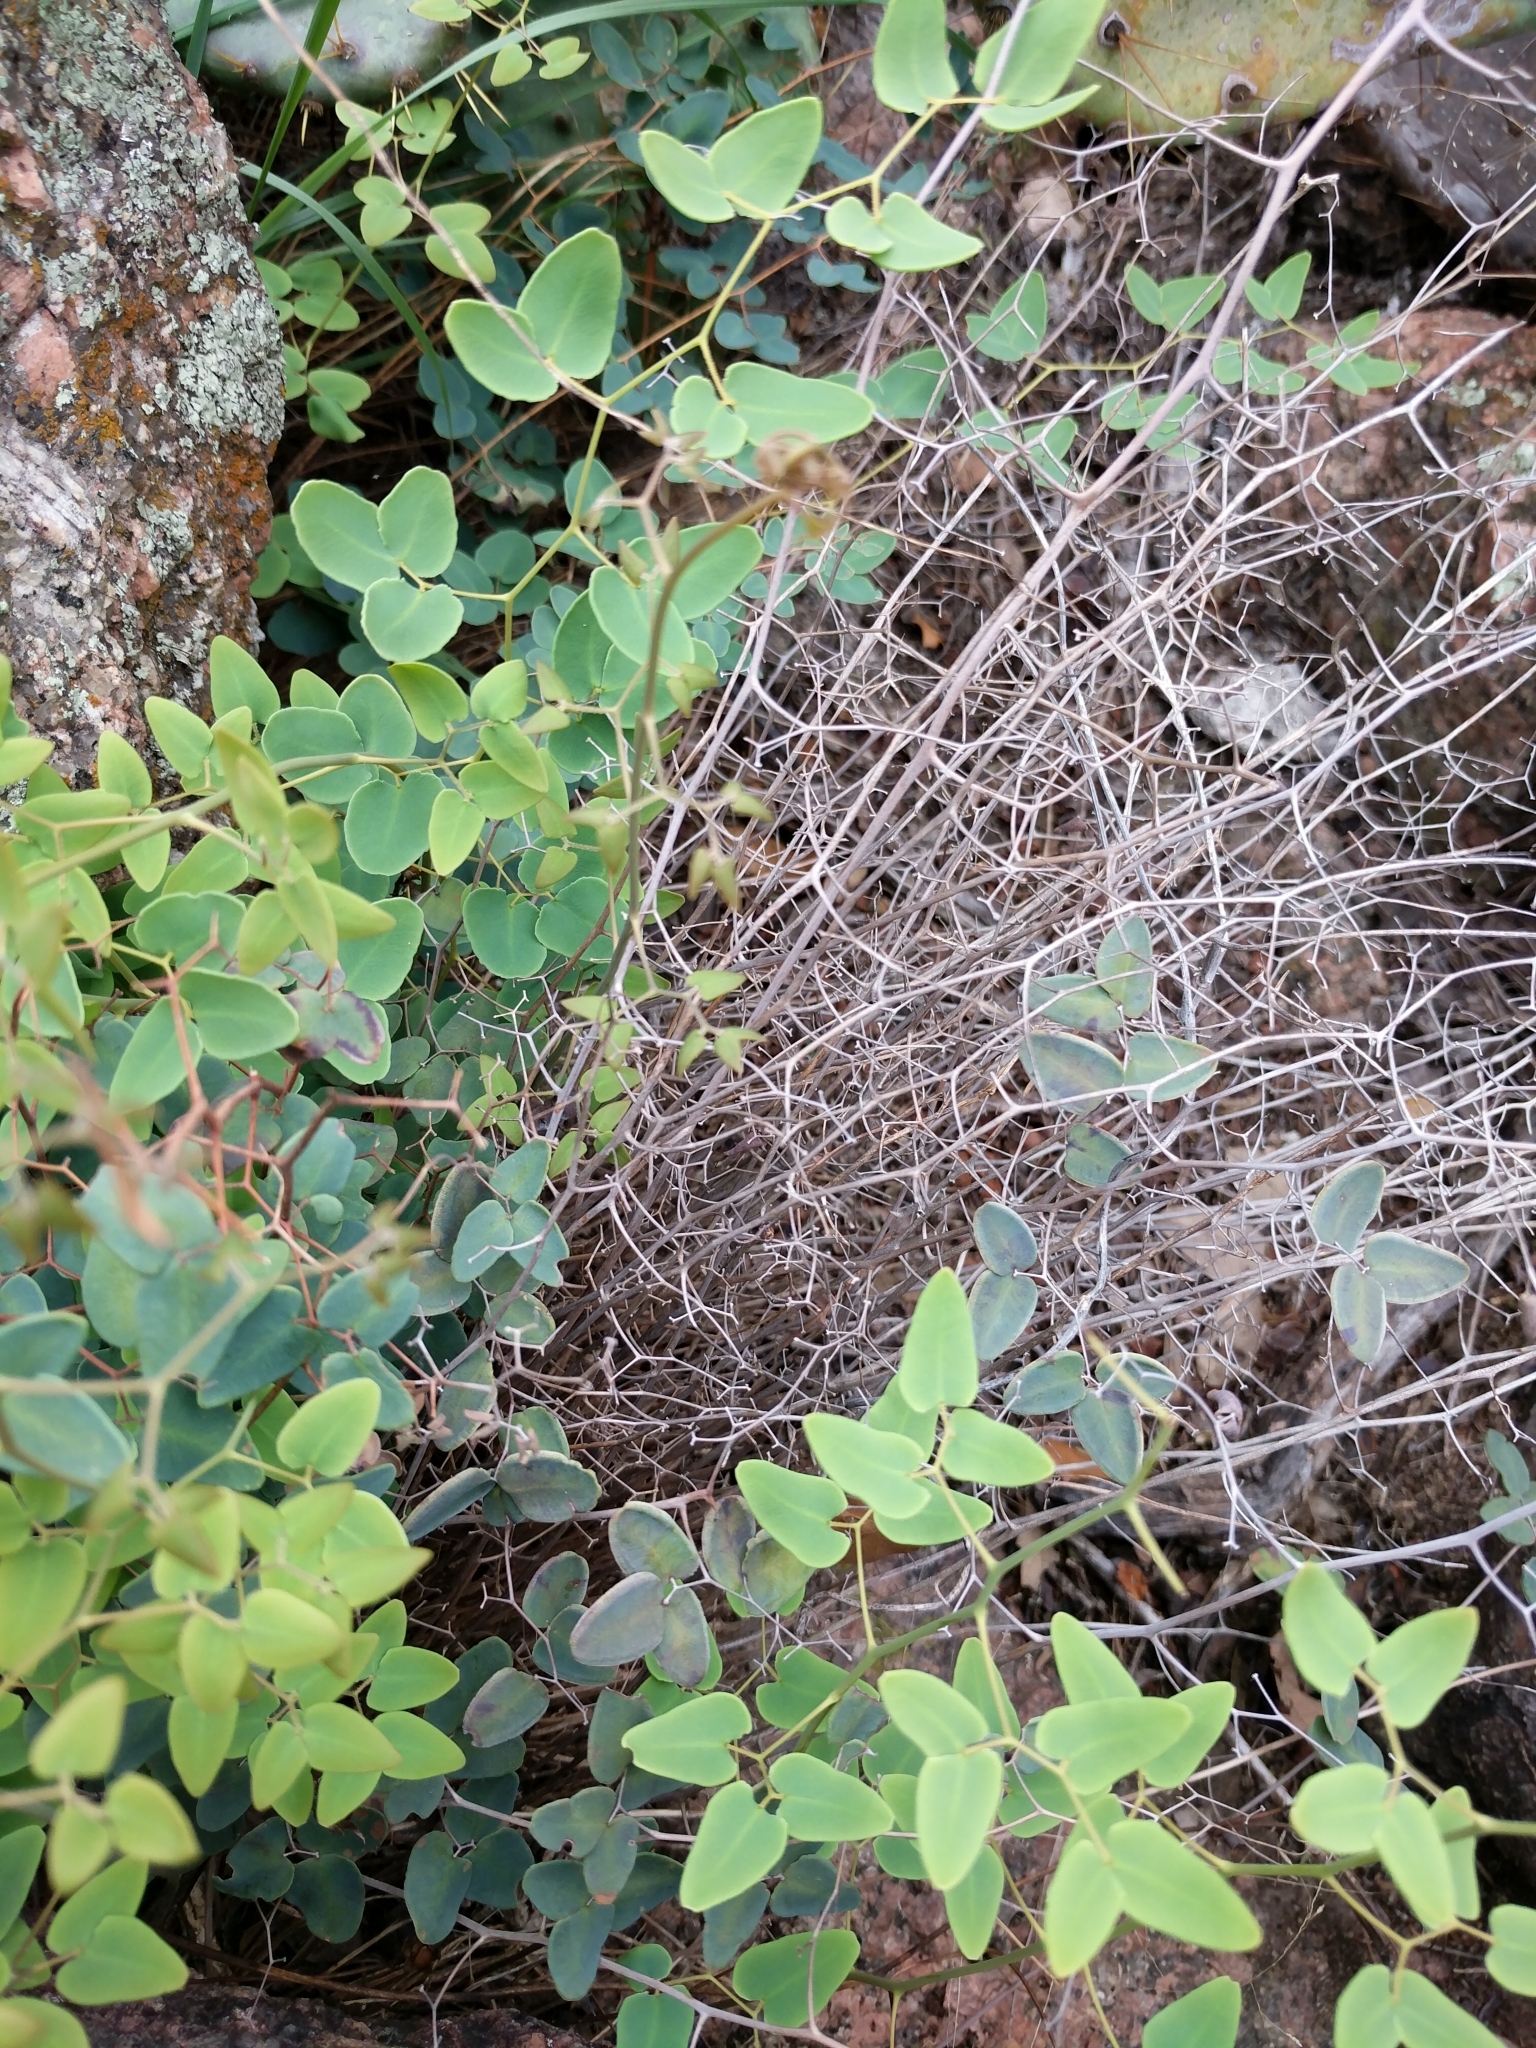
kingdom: Plantae
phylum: Tracheophyta
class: Polypodiopsida
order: Polypodiales
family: Pteridaceae
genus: Pellaea
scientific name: Pellaea ovata
